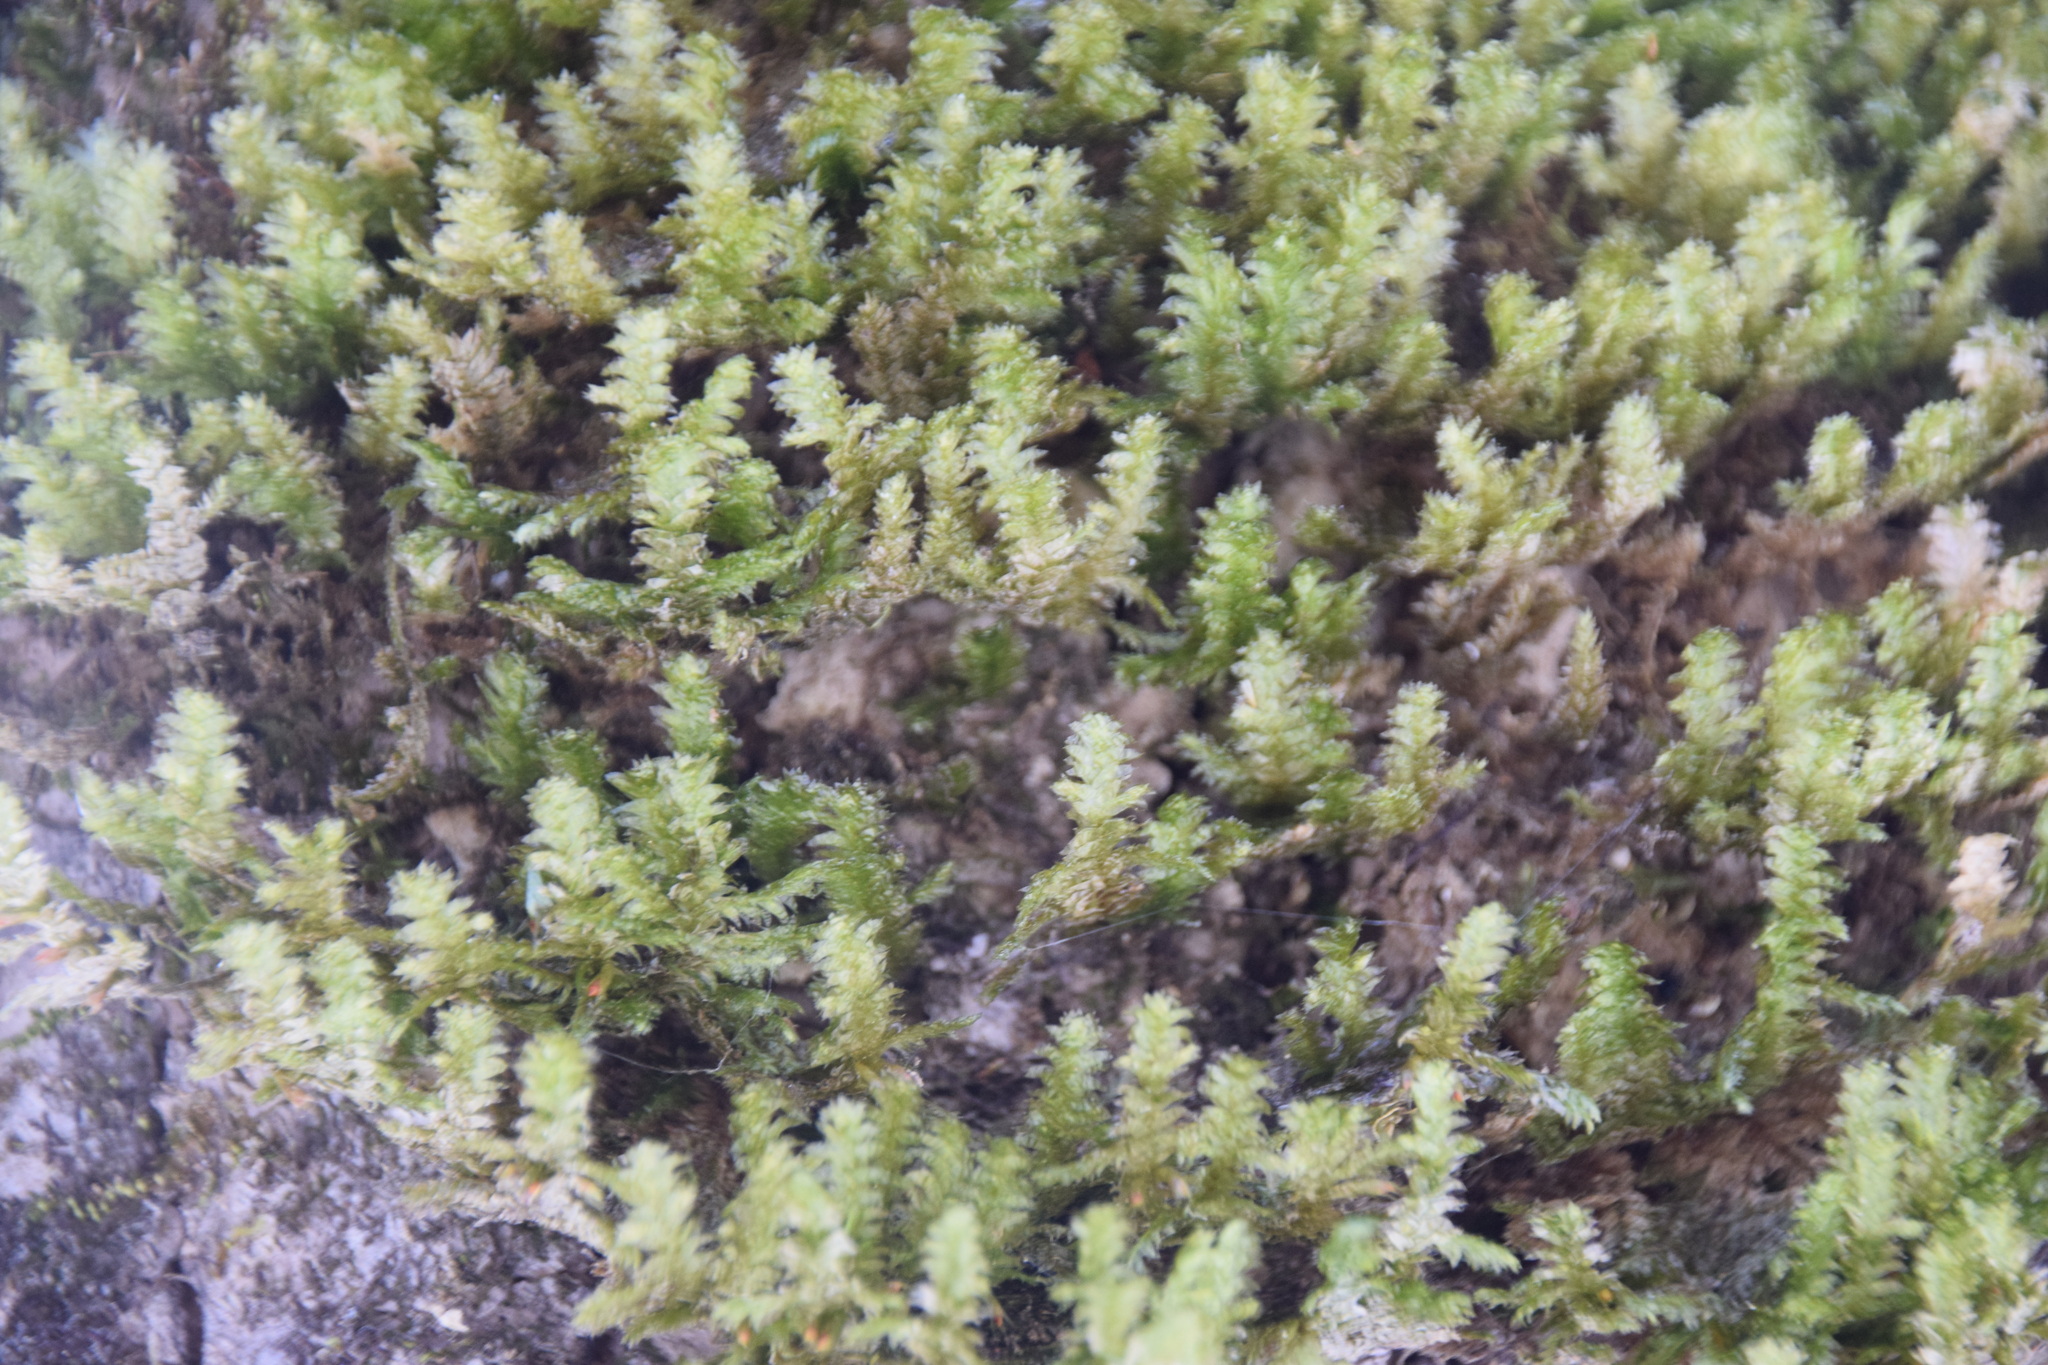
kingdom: Plantae
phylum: Bryophyta
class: Bryopsida
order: Hypnales
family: Neckeraceae
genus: Neckera
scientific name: Neckera pennata
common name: Feathery neckera
